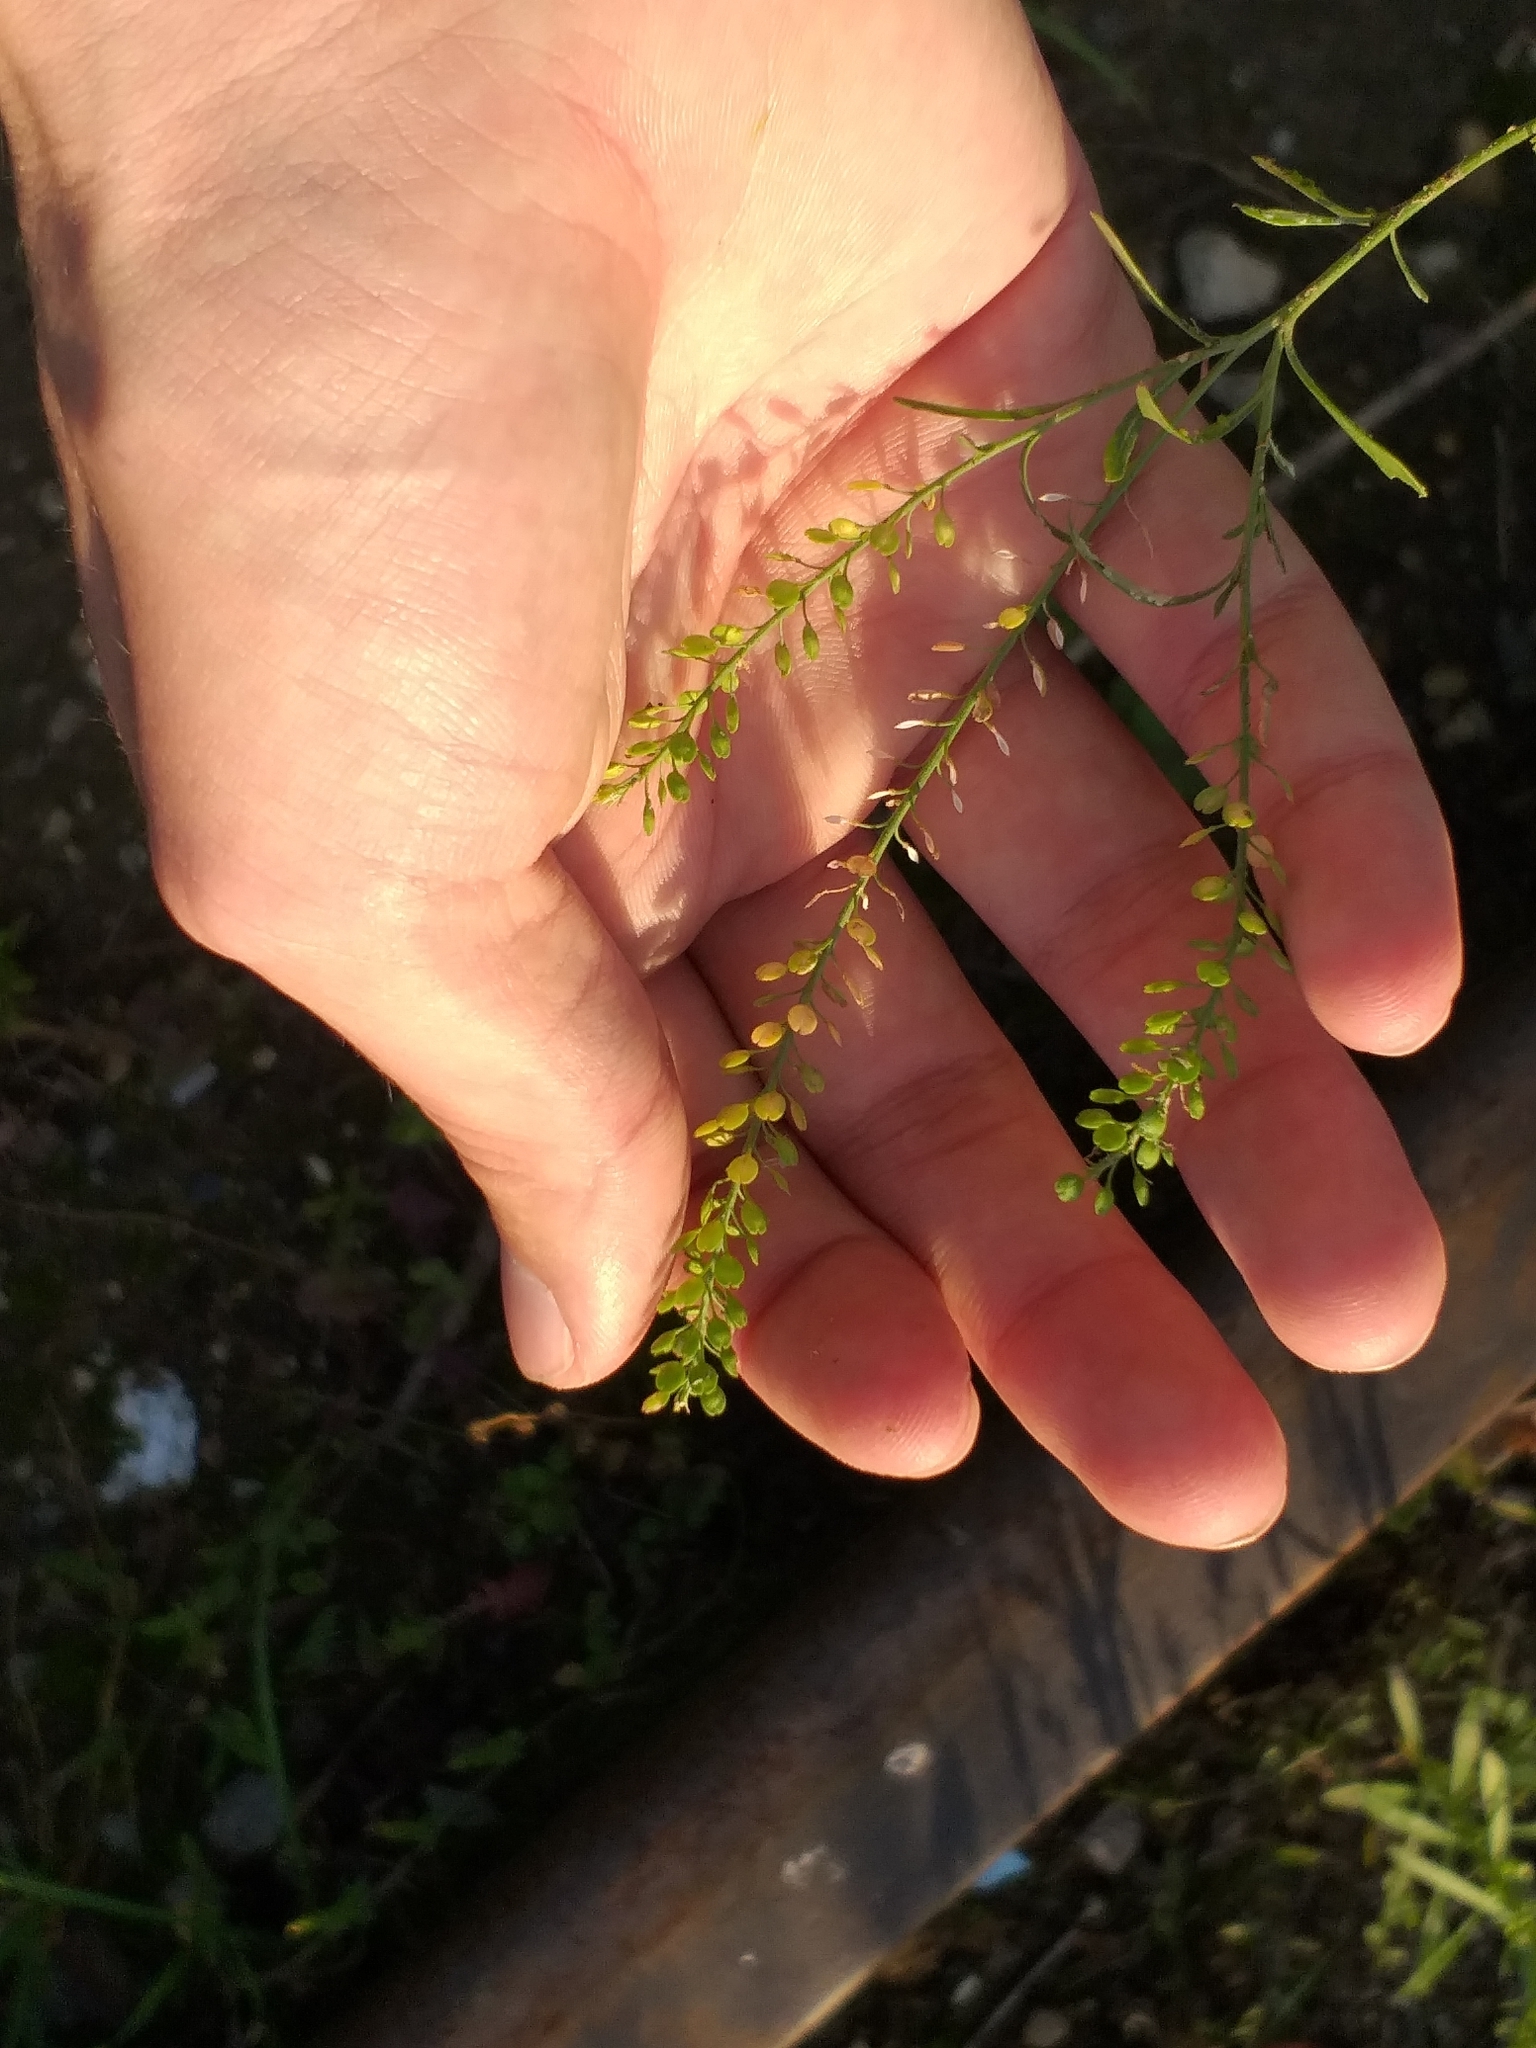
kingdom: Plantae
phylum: Tracheophyta
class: Magnoliopsida
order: Brassicales
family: Brassicaceae
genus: Lepidium
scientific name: Lepidium densiflorum
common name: Miner's pepperwort
